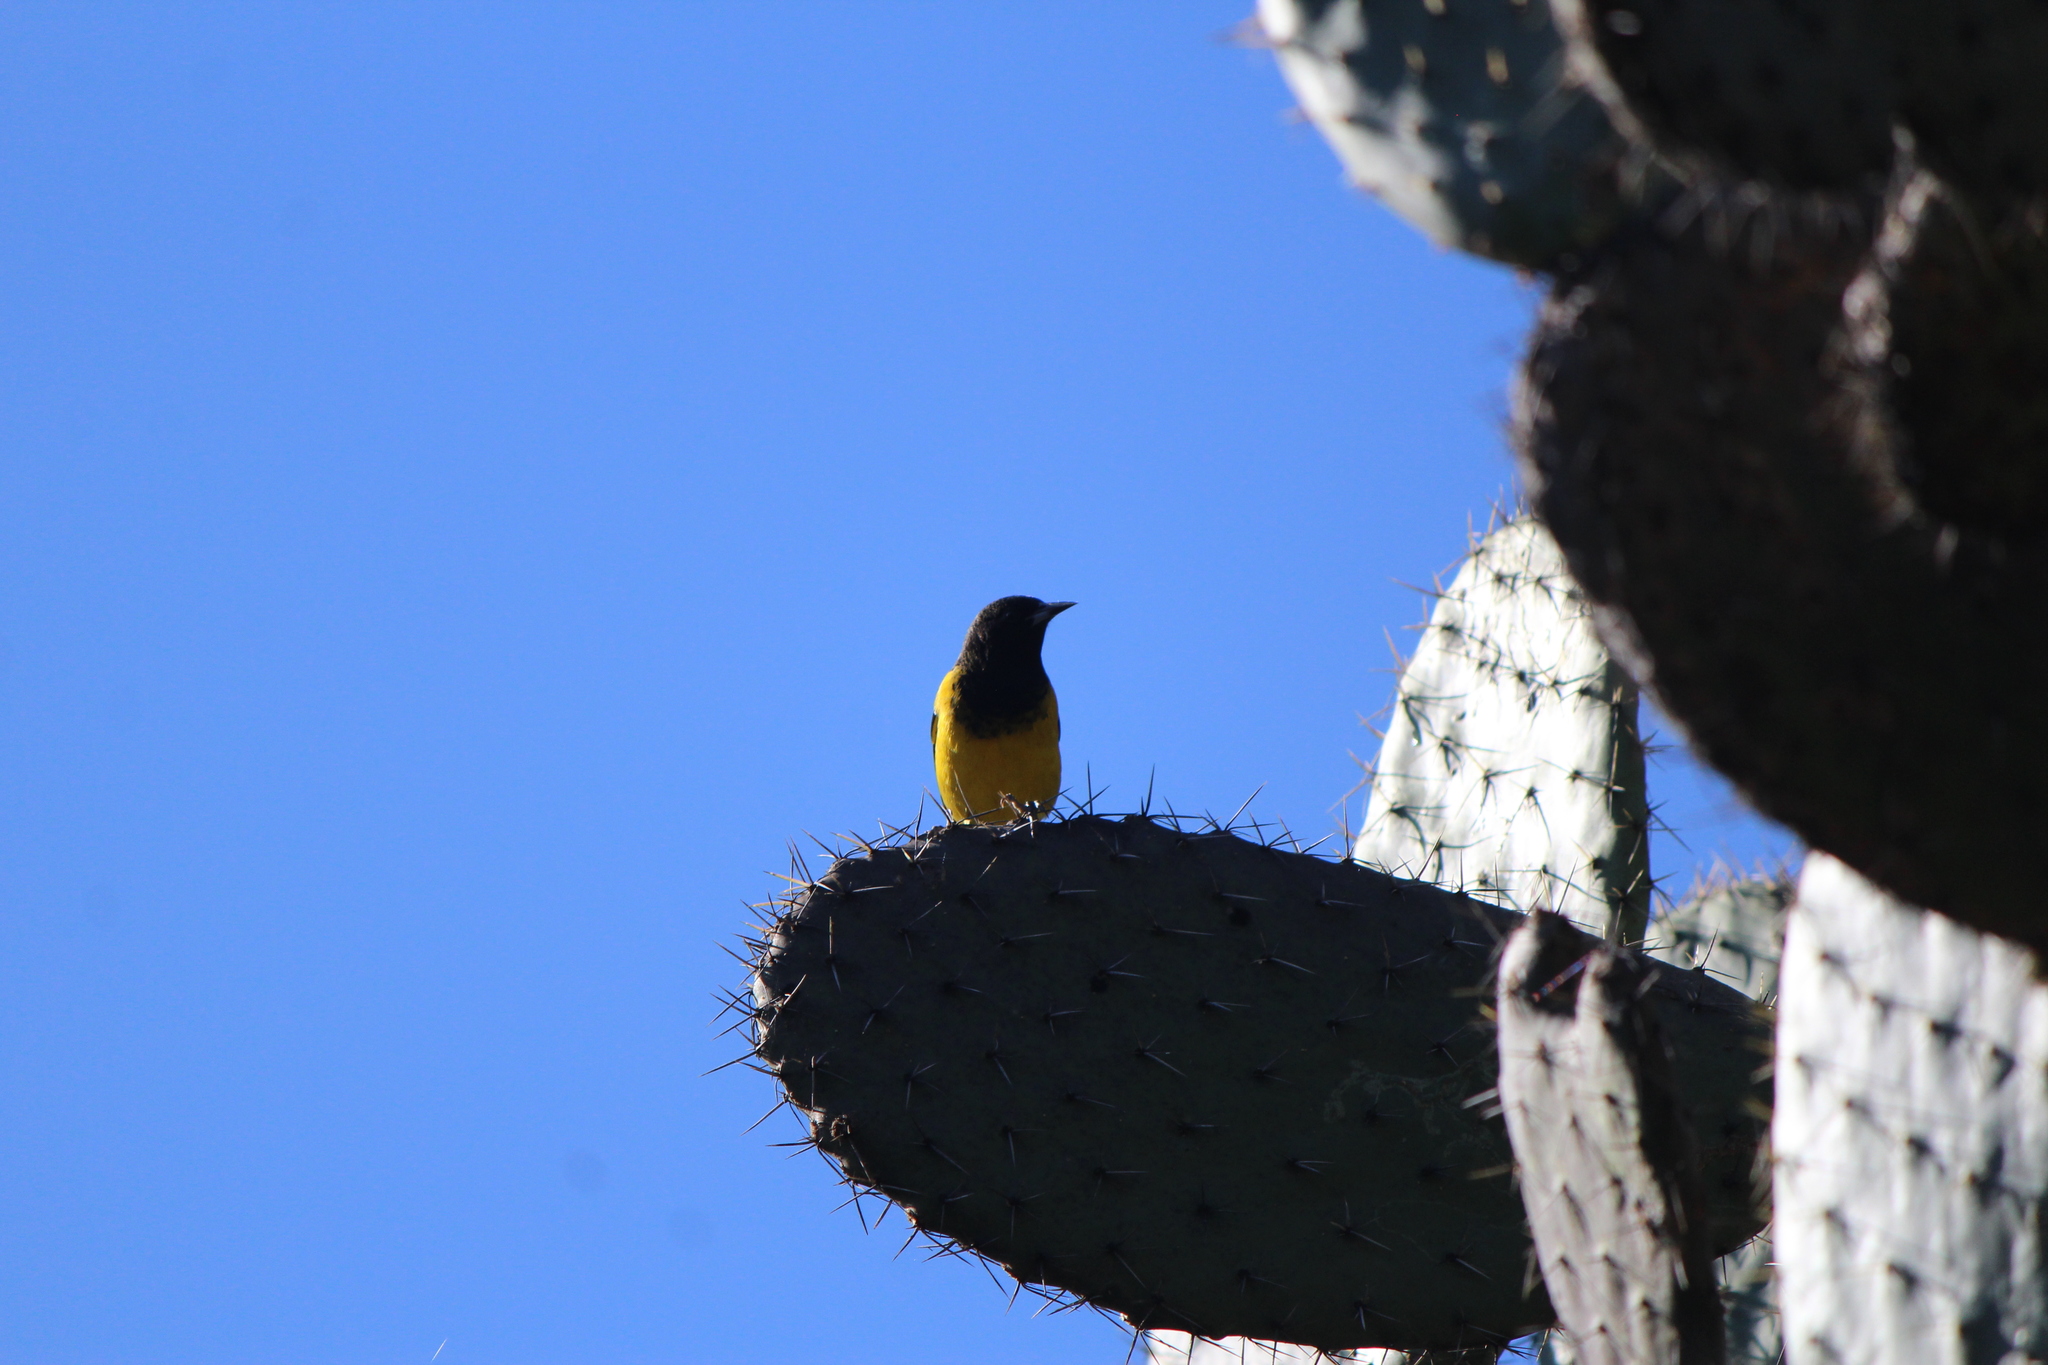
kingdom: Animalia
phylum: Chordata
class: Aves
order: Passeriformes
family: Icteridae
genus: Icterus
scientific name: Icterus parisorum
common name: Scott's oriole
